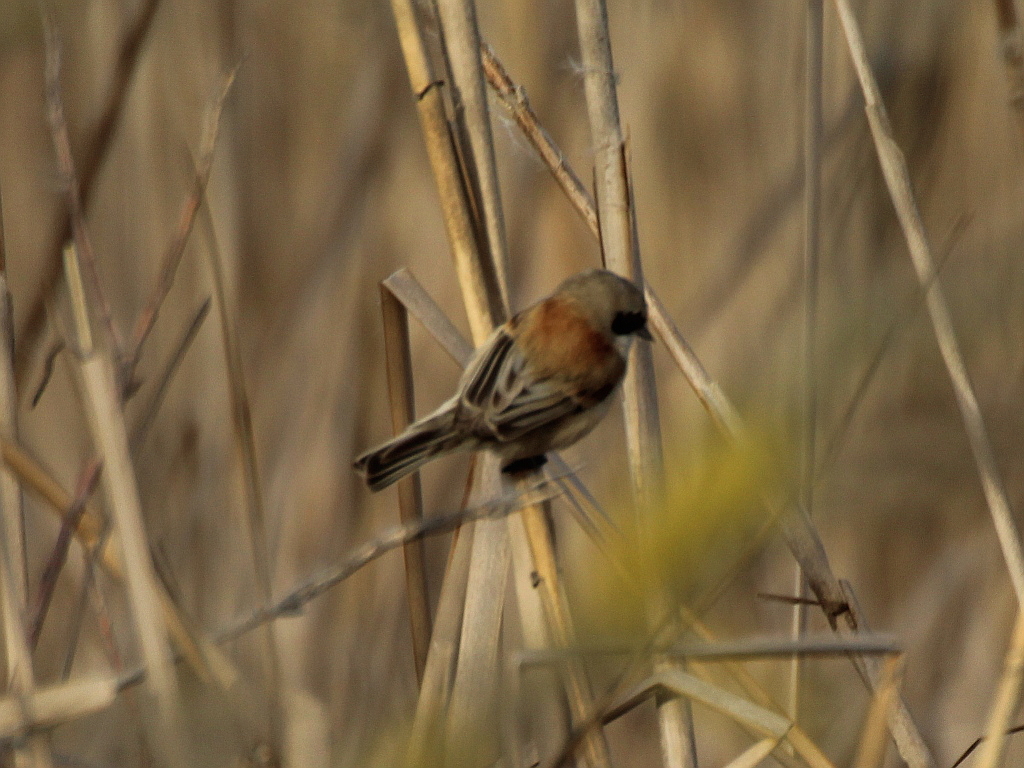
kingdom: Animalia
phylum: Chordata
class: Aves
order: Passeriformes
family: Remizidae
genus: Remiz
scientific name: Remiz pendulinus
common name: Eurasian penduline tit
